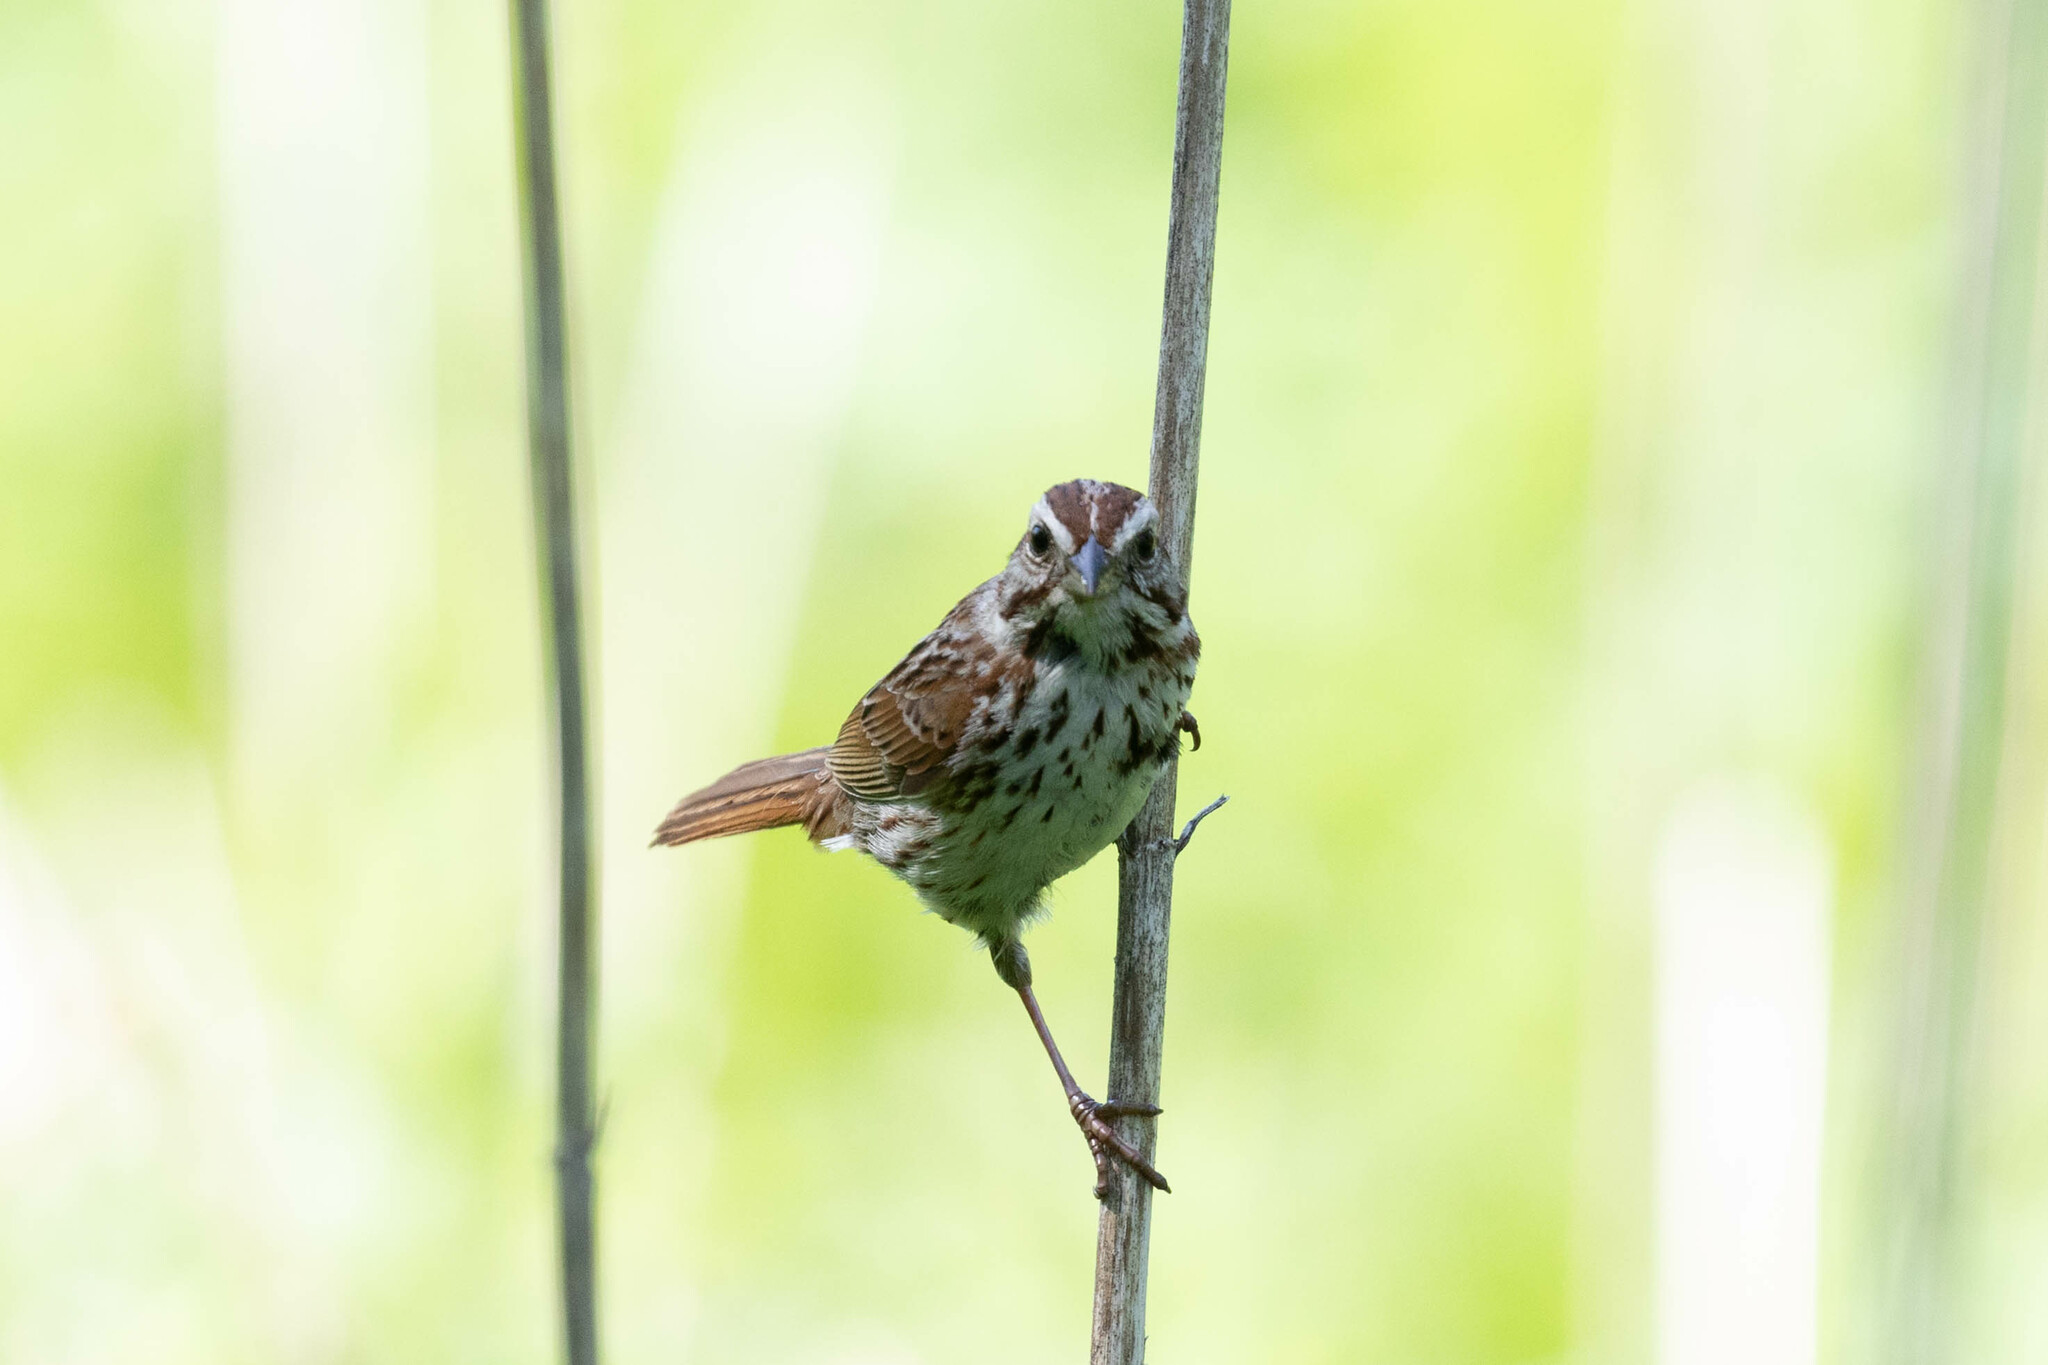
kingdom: Animalia
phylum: Chordata
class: Aves
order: Passeriformes
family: Passerellidae
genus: Melospiza
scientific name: Melospiza melodia
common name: Song sparrow
